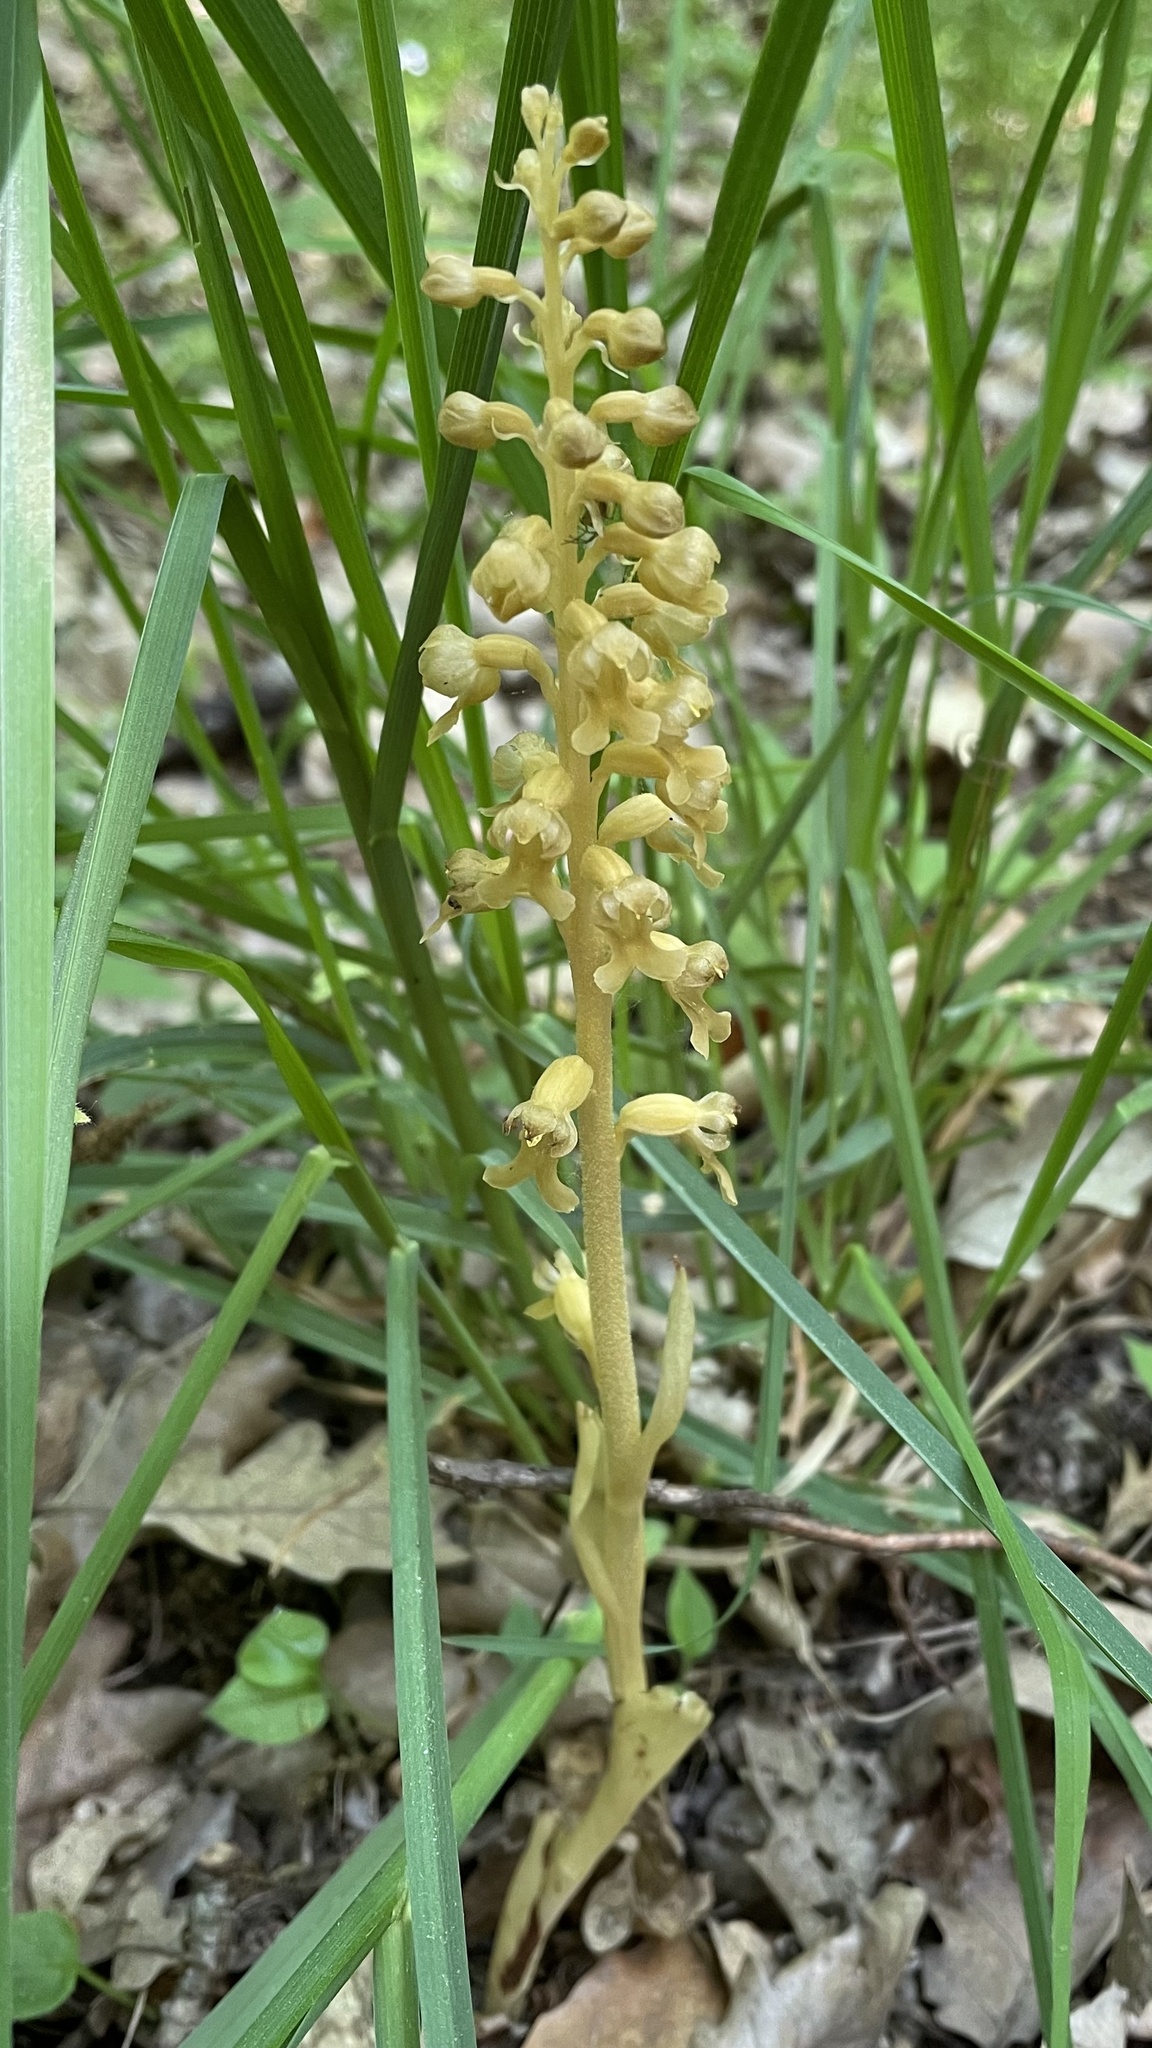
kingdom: Plantae
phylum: Tracheophyta
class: Liliopsida
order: Asparagales
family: Orchidaceae
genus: Neottia
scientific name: Neottia nidus-avis
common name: Bird's-nest orchid
